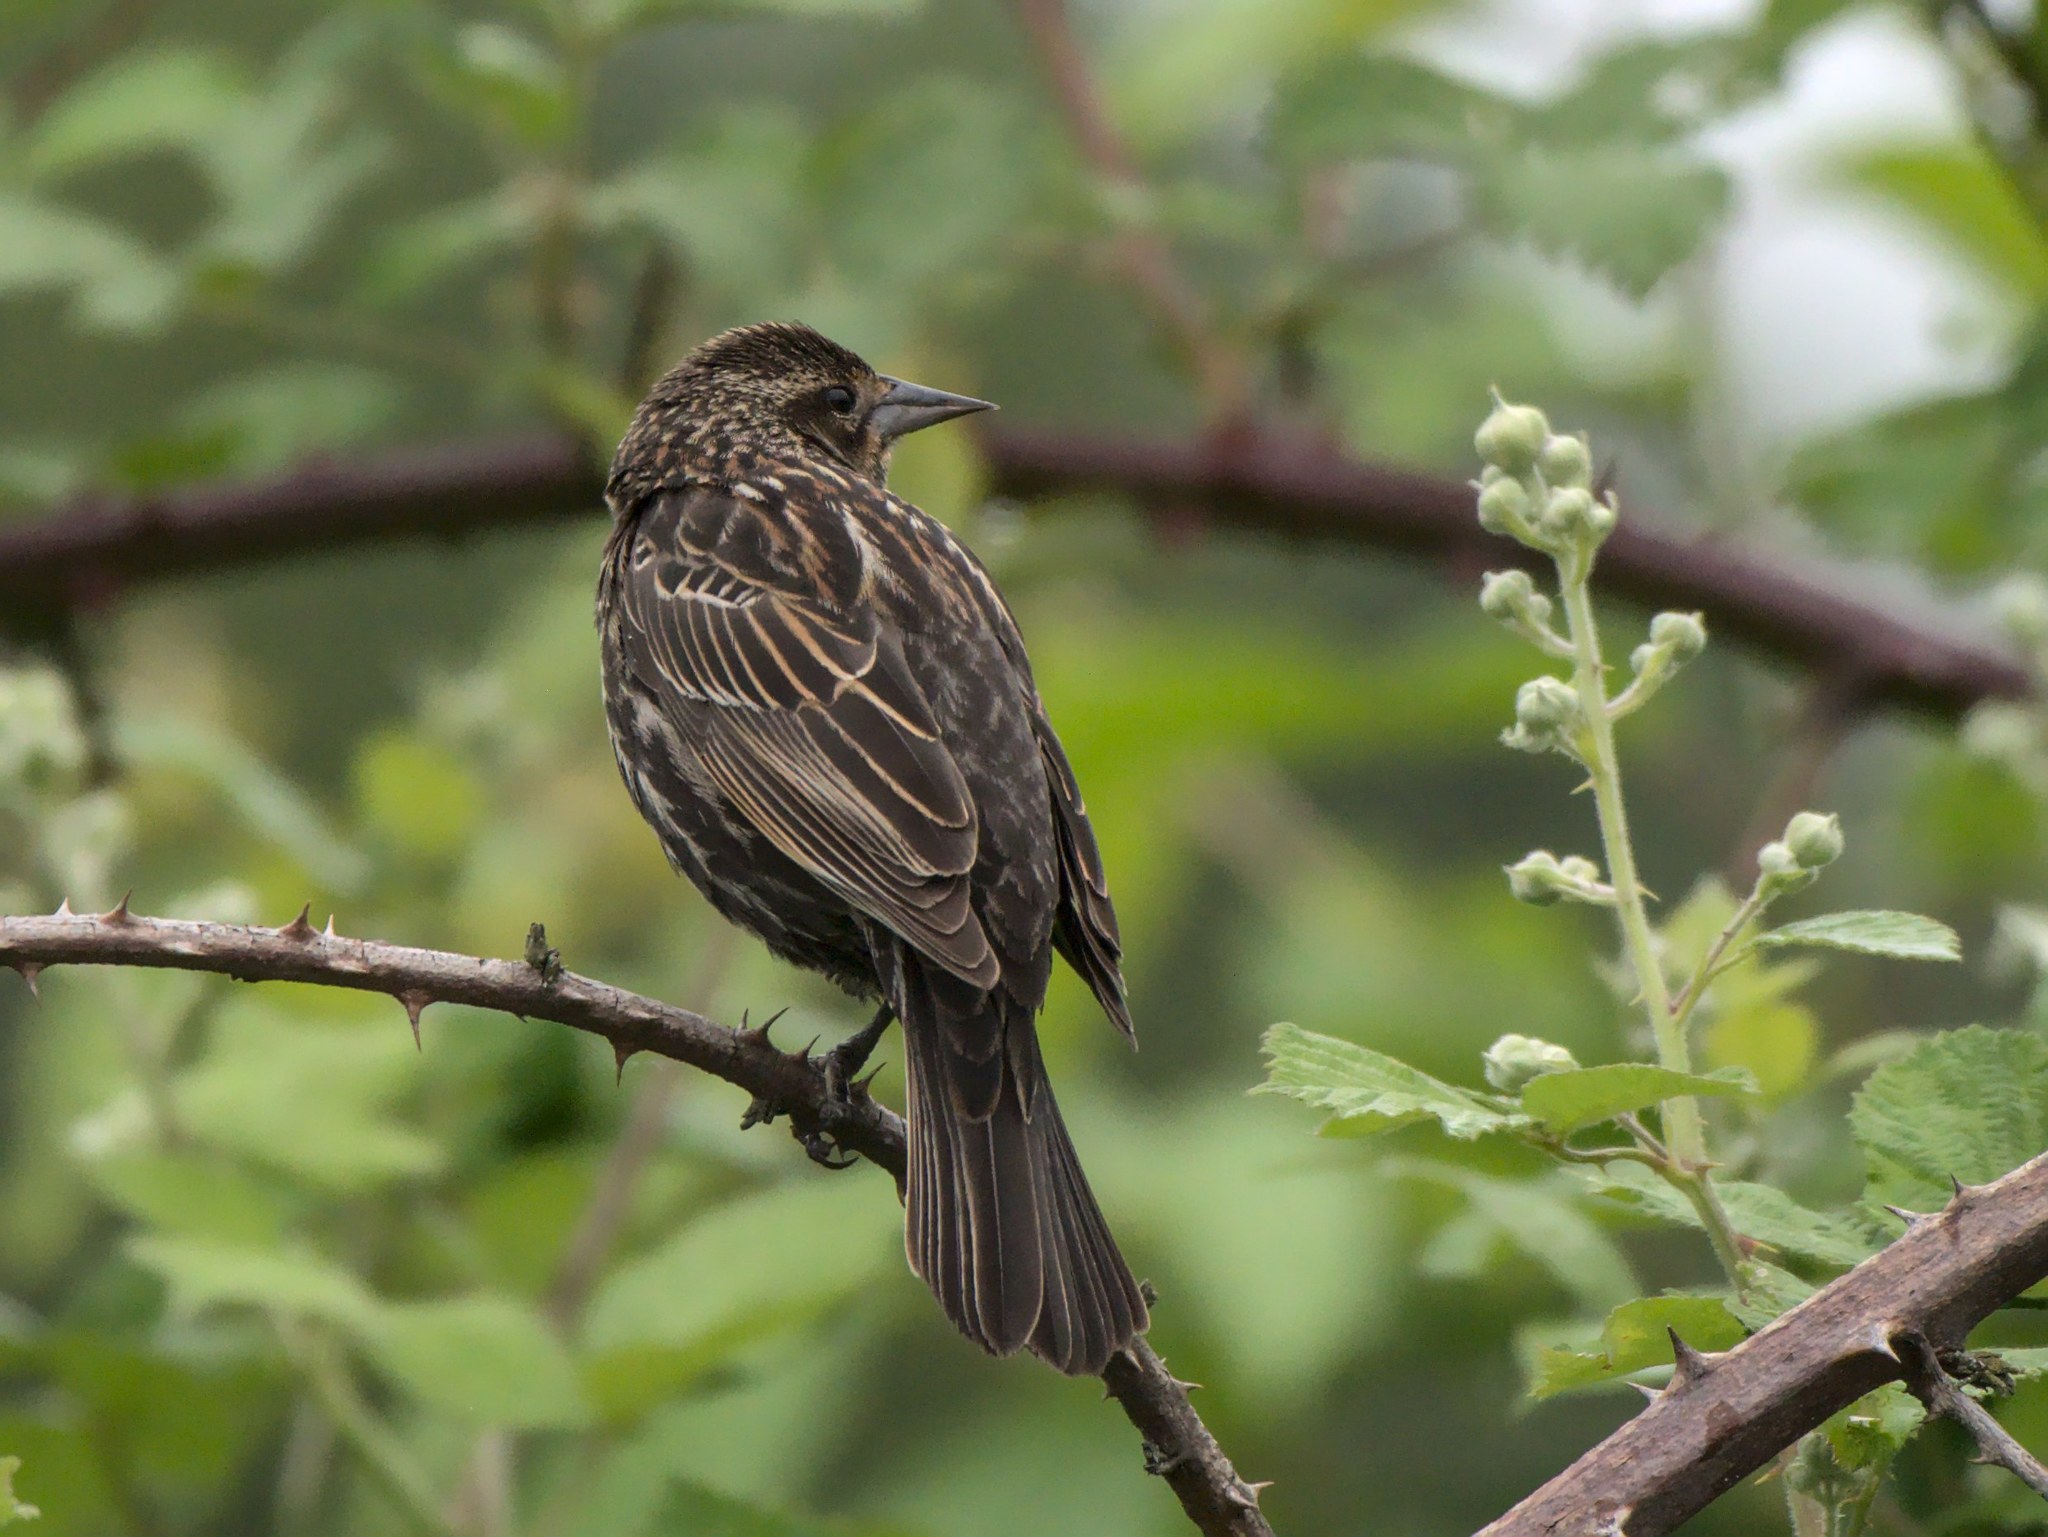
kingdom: Animalia
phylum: Chordata
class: Aves
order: Passeriformes
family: Icteridae
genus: Agelaius
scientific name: Agelaius phoeniceus
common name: Red-winged blackbird
